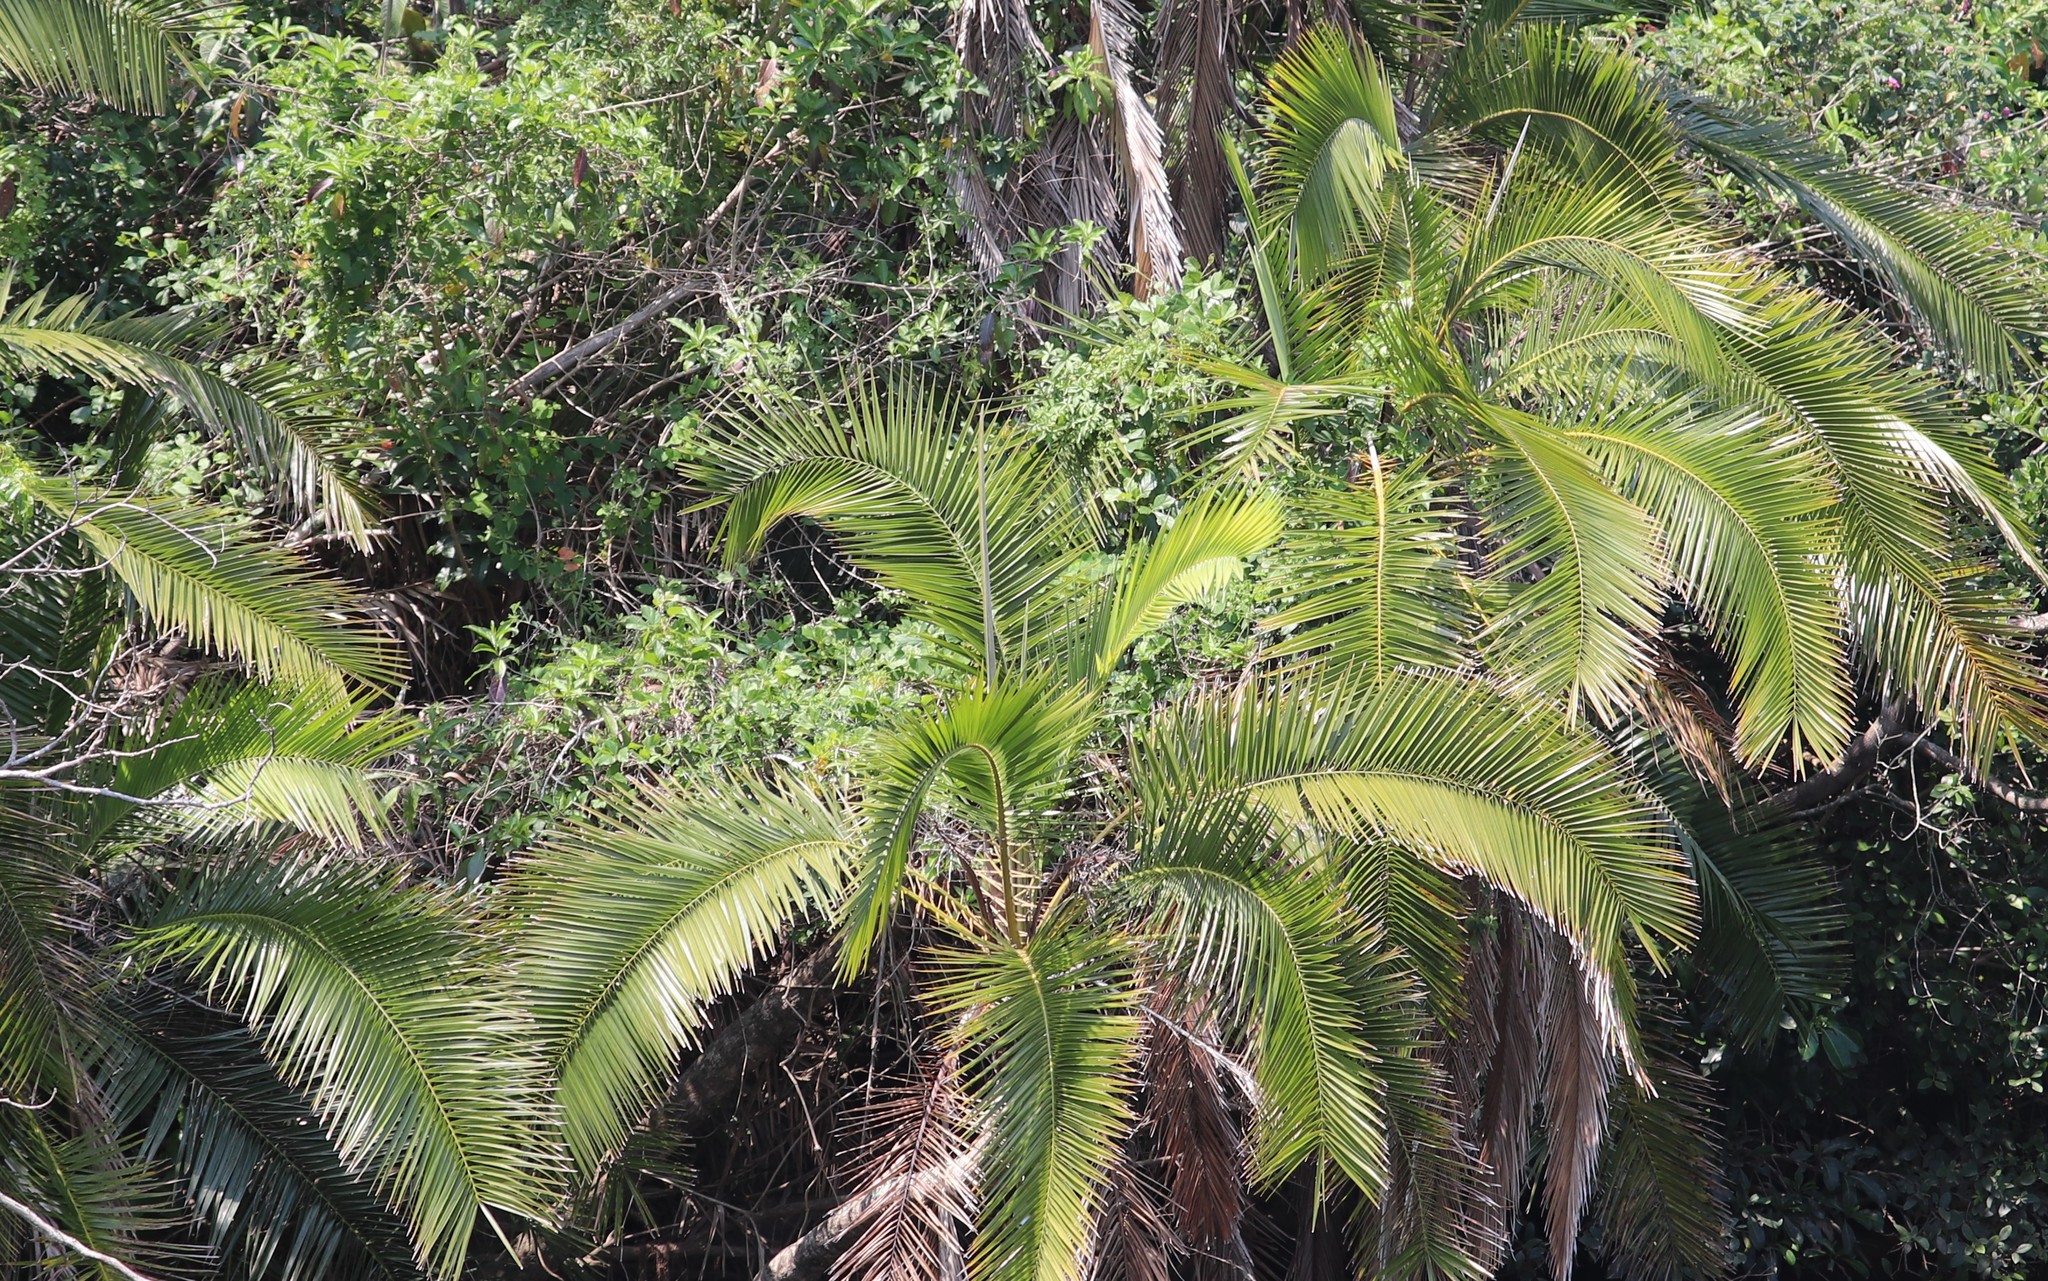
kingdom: Plantae
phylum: Tracheophyta
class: Liliopsida
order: Arecales
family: Arecaceae
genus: Phoenix
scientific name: Phoenix reclinata
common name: Senegal date palm
